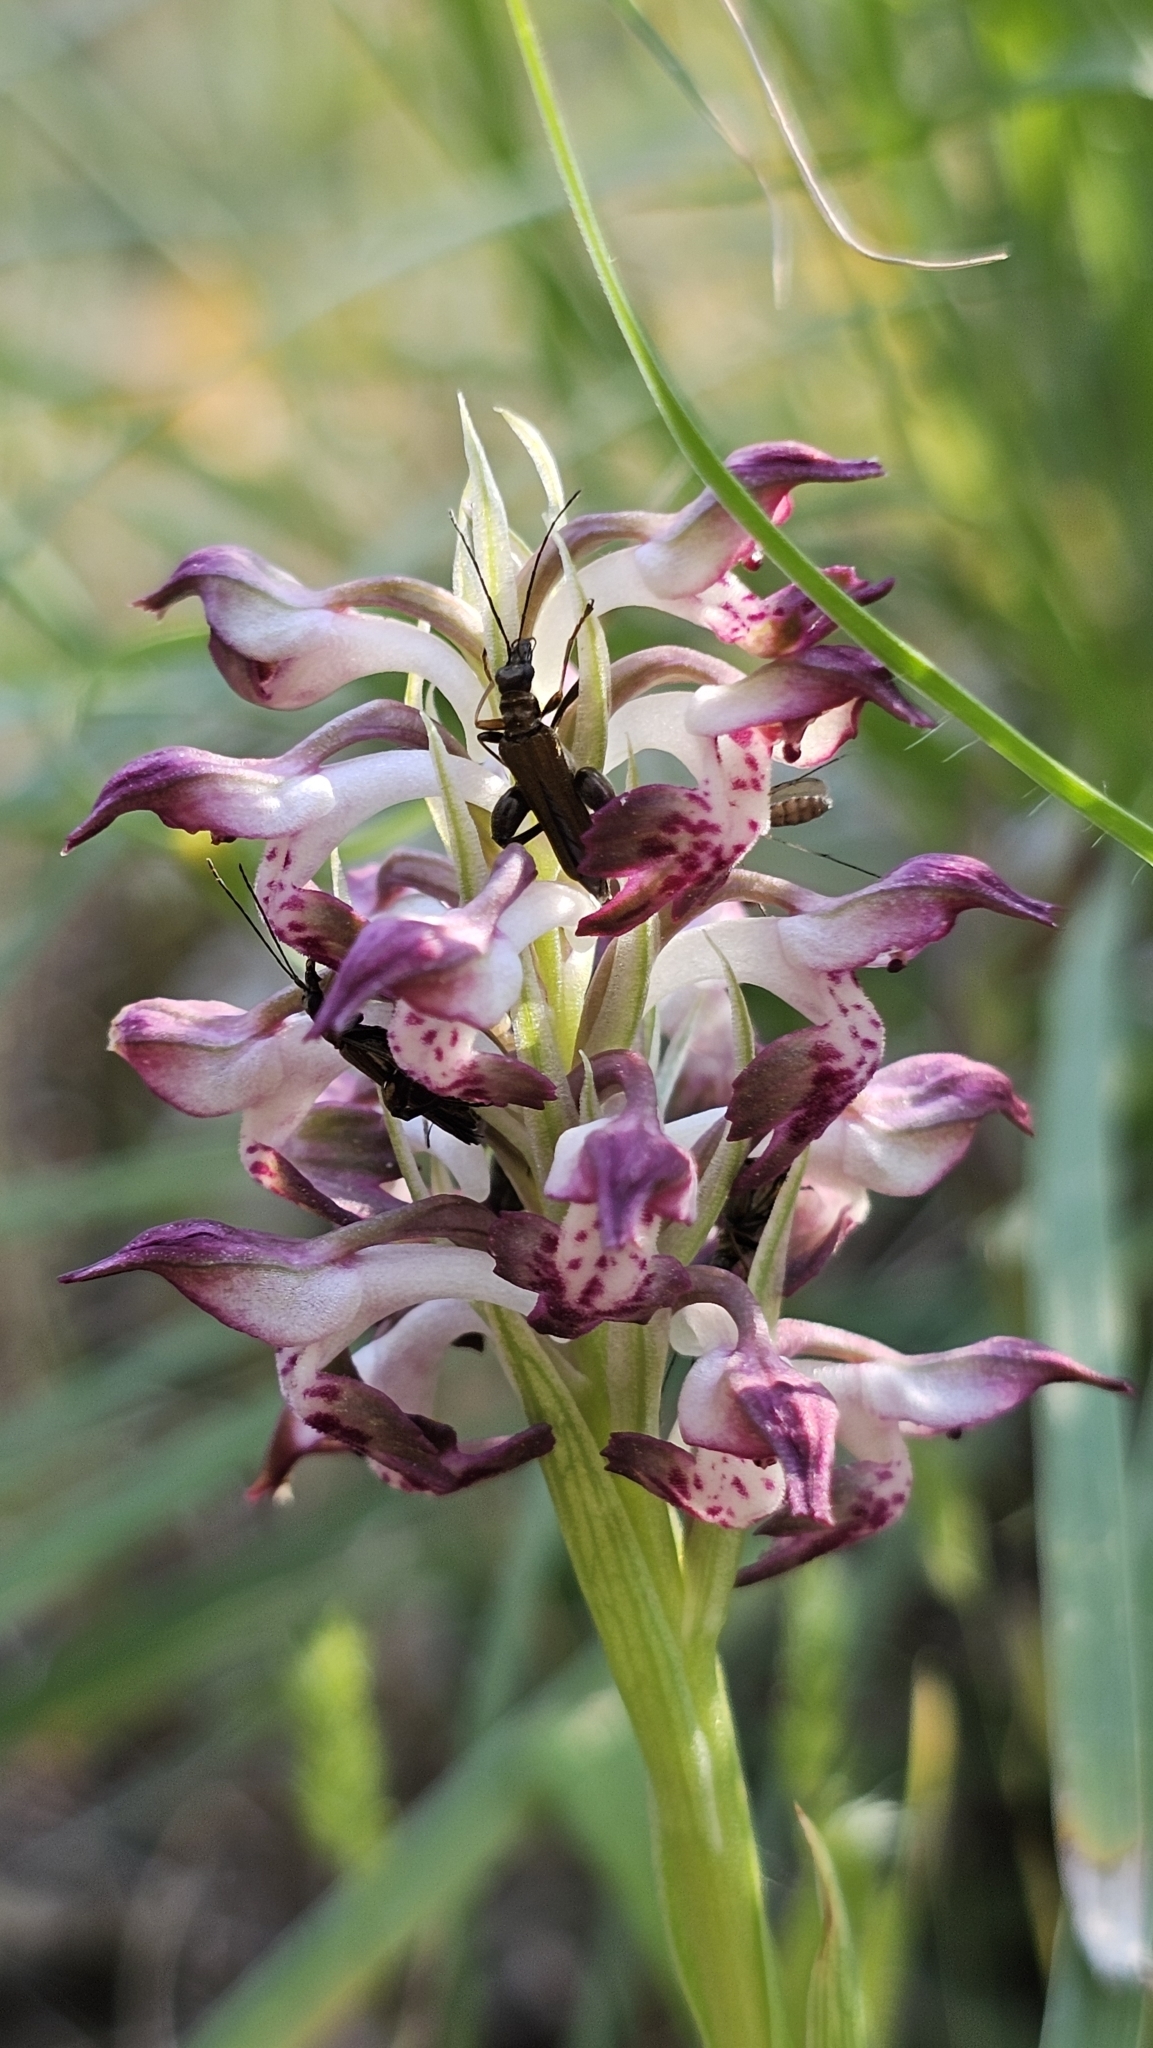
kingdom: Plantae
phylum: Tracheophyta
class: Liliopsida
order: Asparagales
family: Orchidaceae
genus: Anacamptis
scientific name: Anacamptis coriophora
